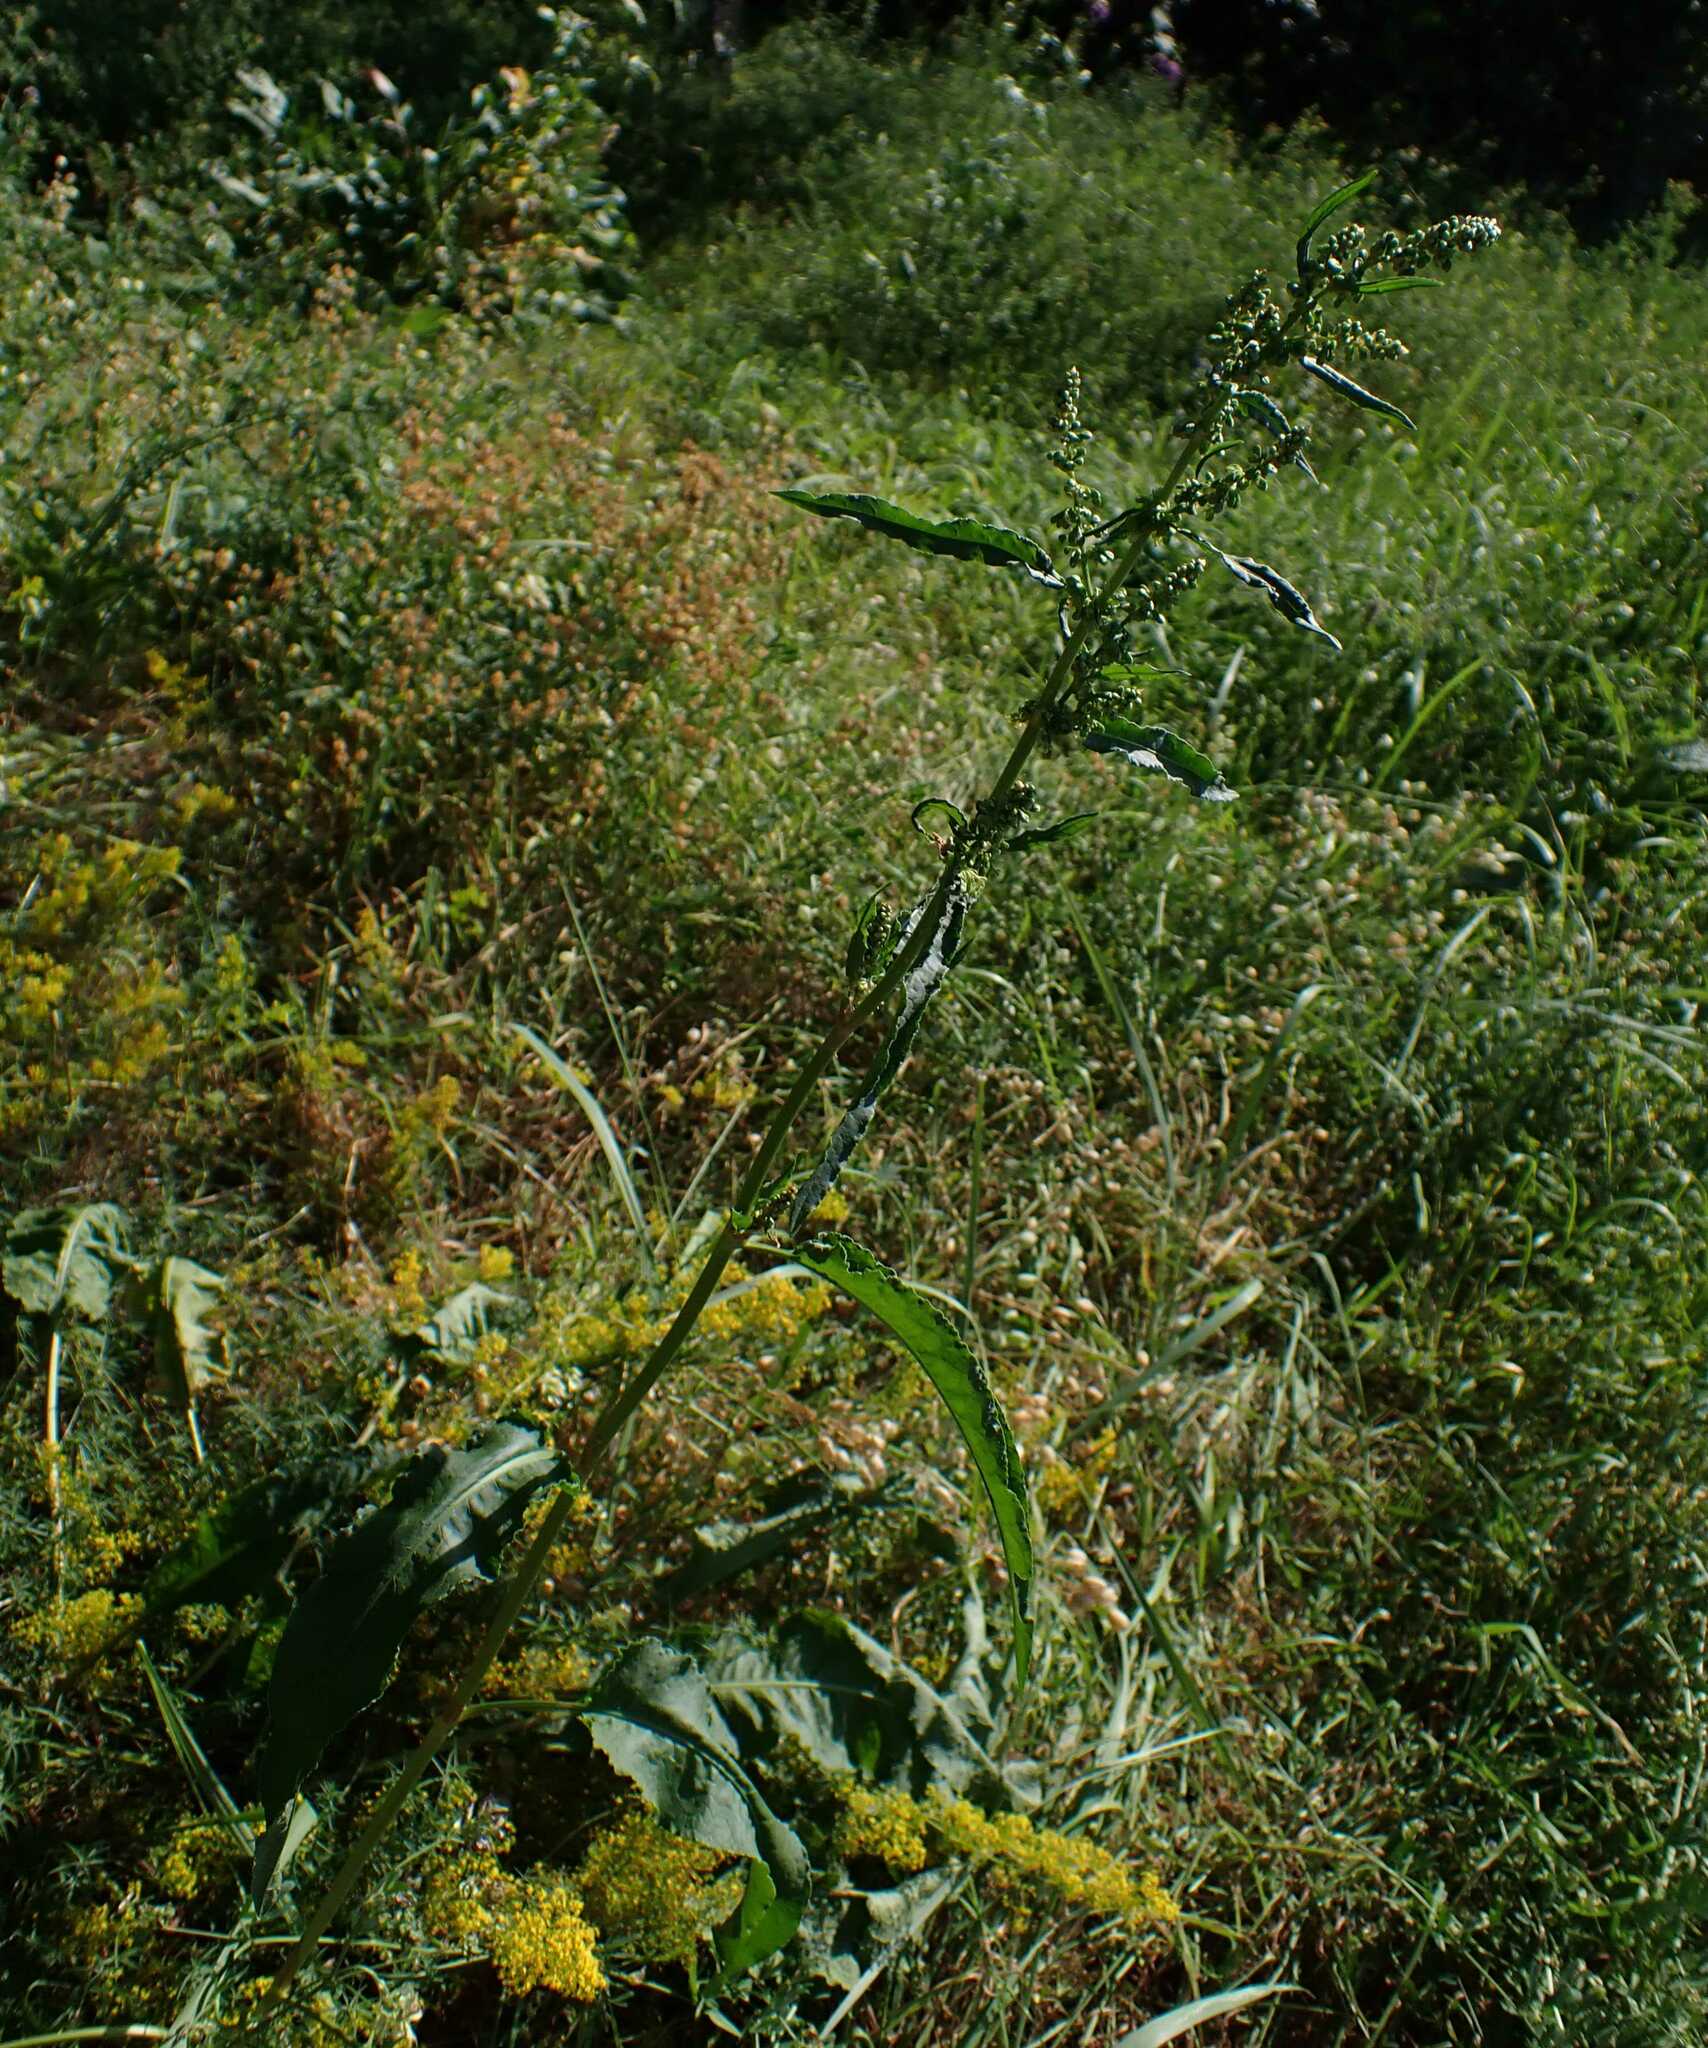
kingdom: Plantae
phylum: Tracheophyta
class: Magnoliopsida
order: Caryophyllales
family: Polygonaceae
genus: Rumex
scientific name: Rumex crispus
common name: Curled dock
